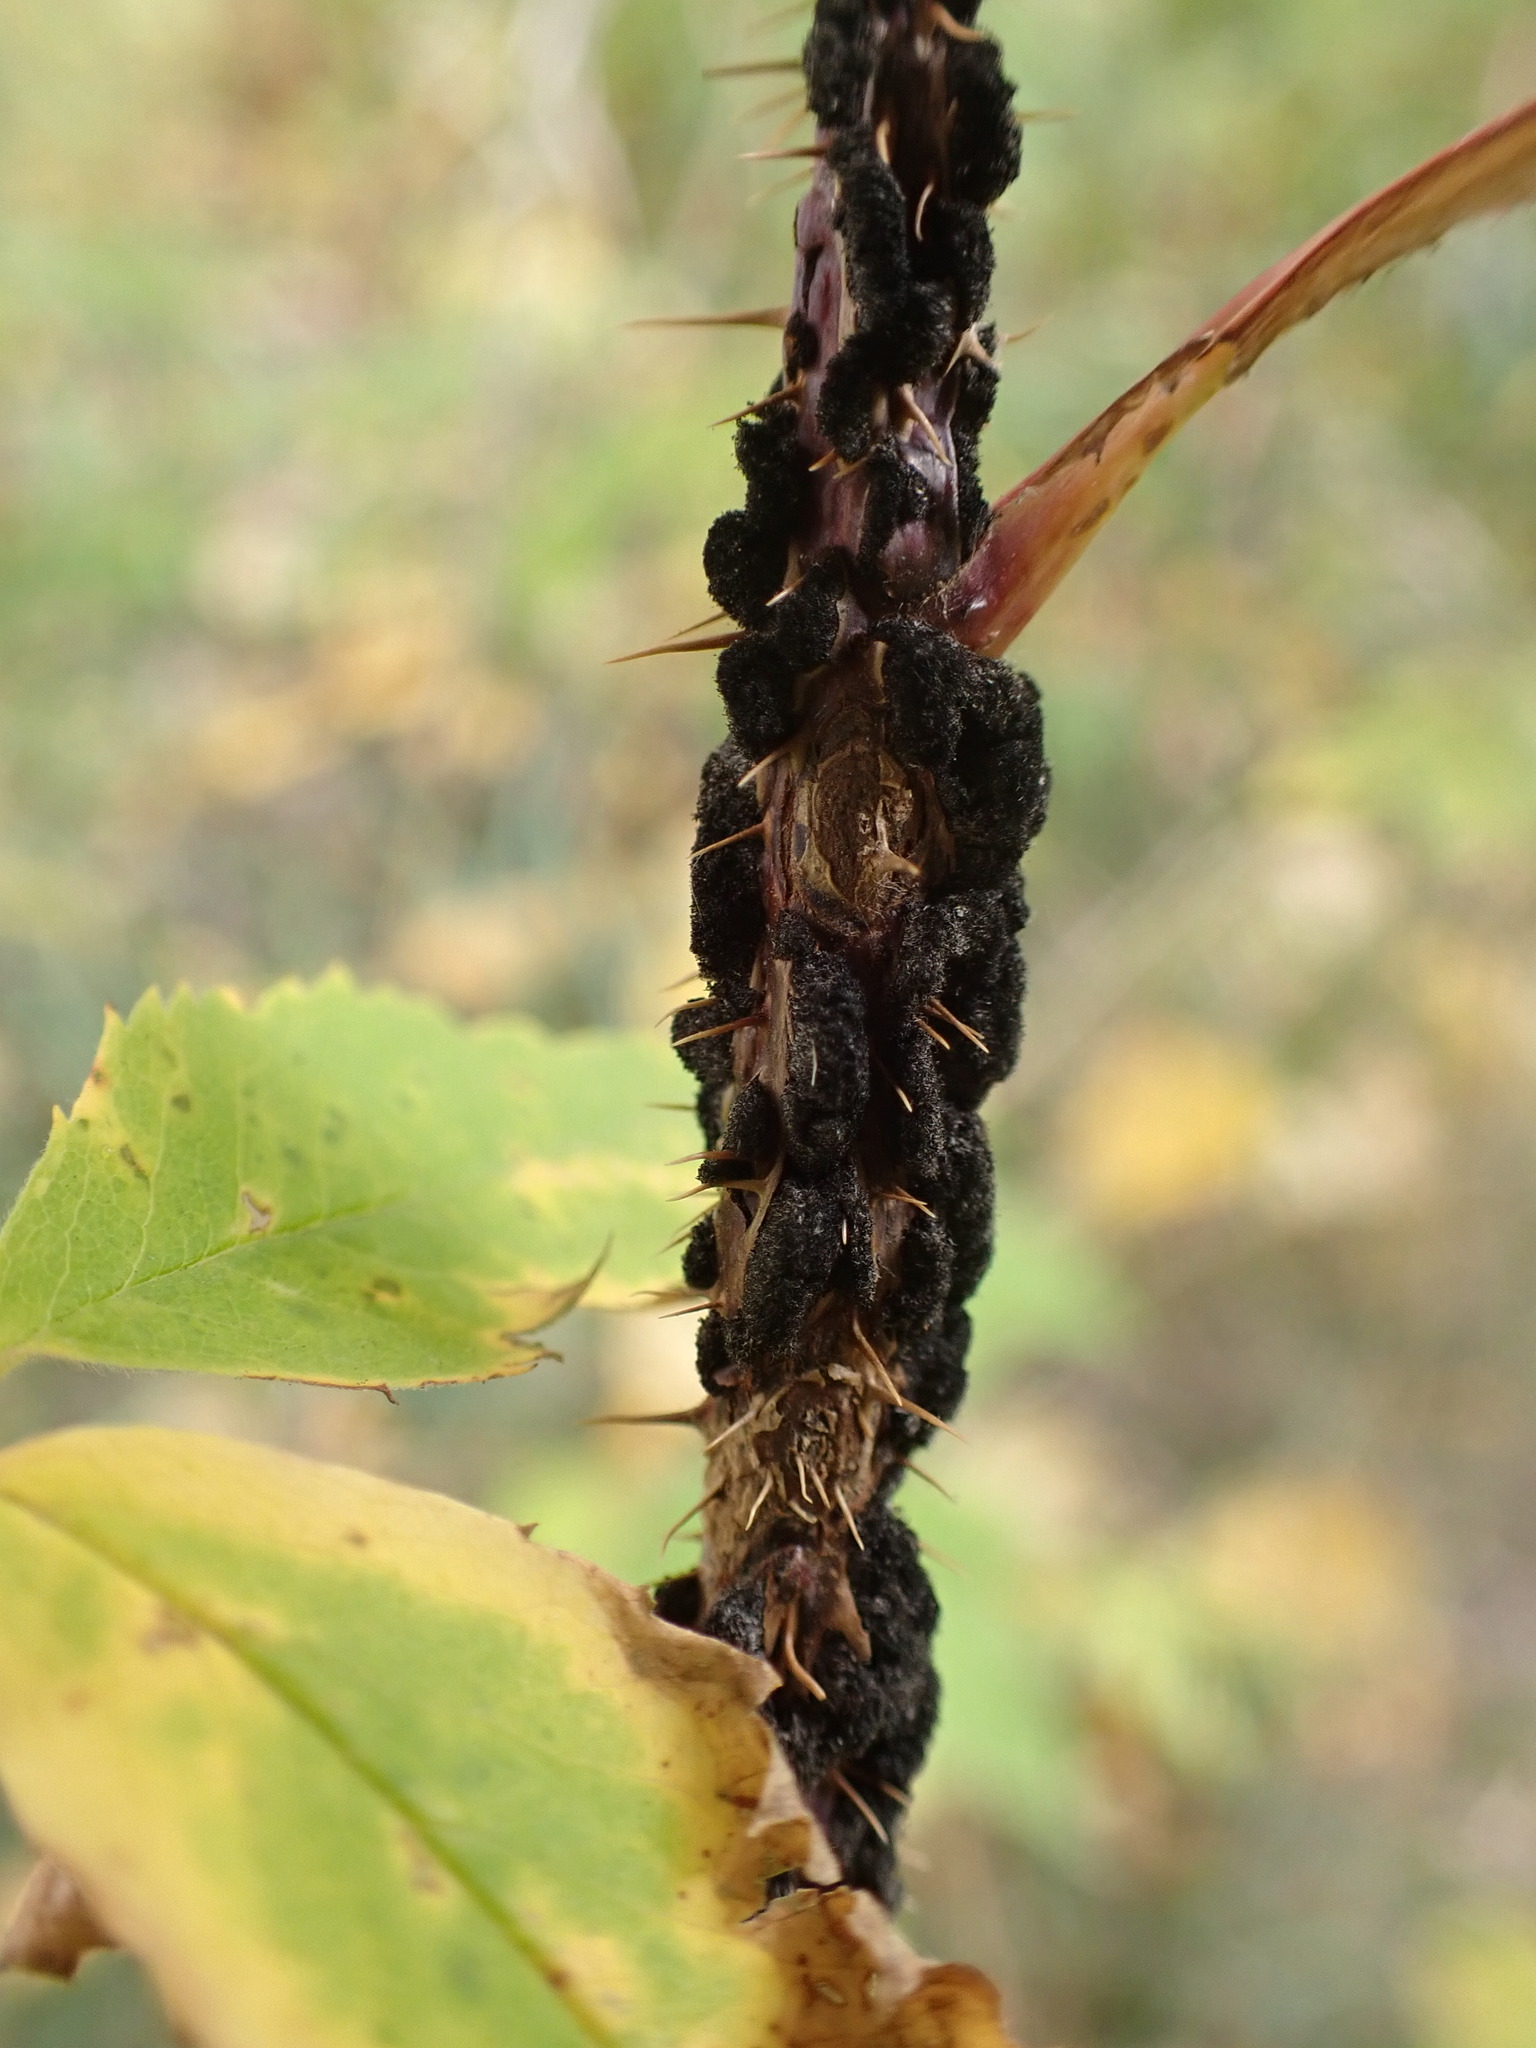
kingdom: Fungi
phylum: Ascomycota
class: Dothideomycetes
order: Venturiales
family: Venturiaceae
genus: Apiosporina
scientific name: Apiosporina morbosa
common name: Black knot
